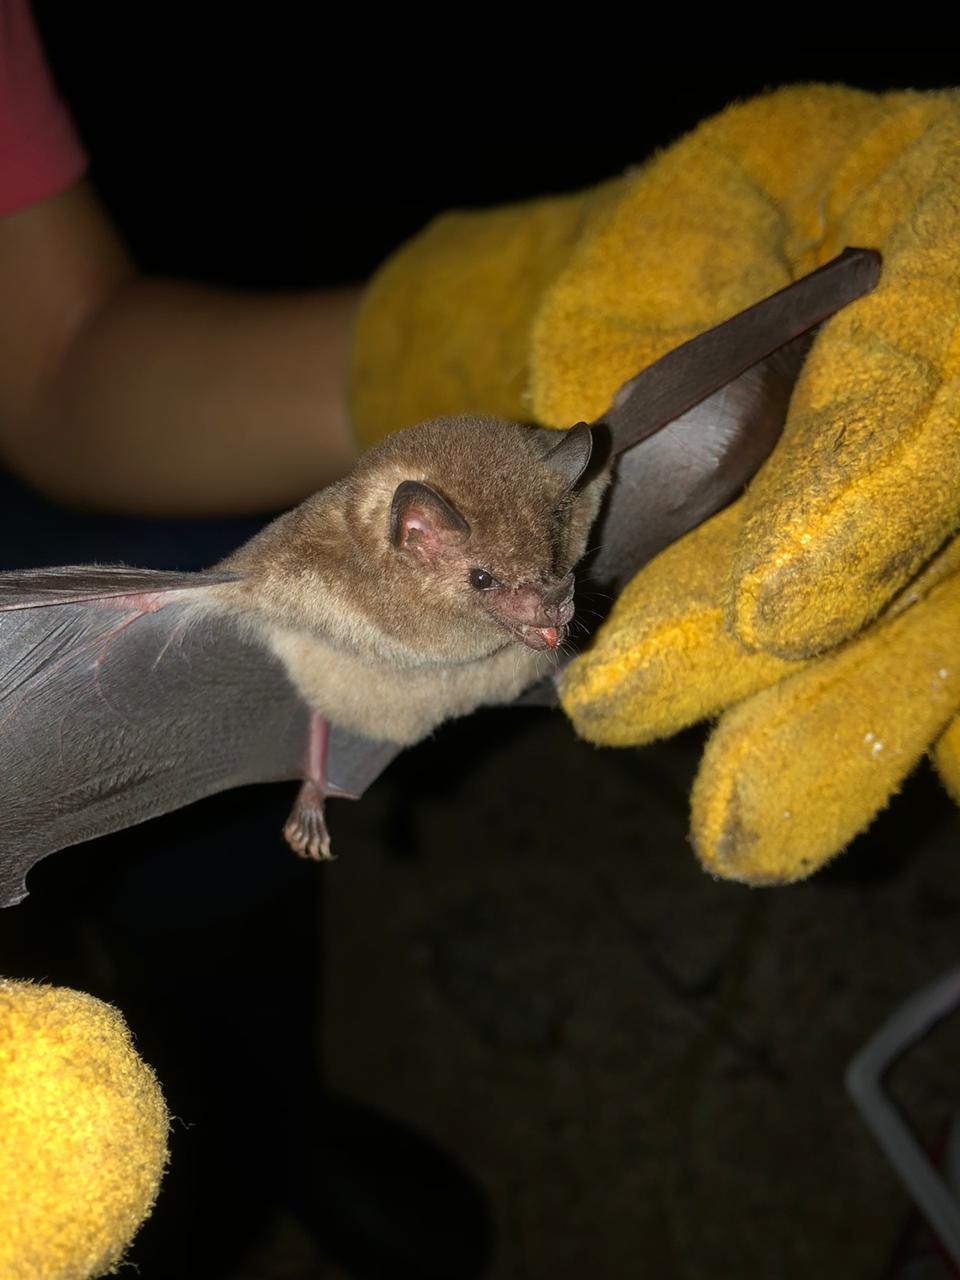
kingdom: Animalia
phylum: Chordata
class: Mammalia
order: Chiroptera
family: Phyllostomidae
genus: Glossophaga
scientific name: Glossophaga soricina
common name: Pallas's long-tongued bat
